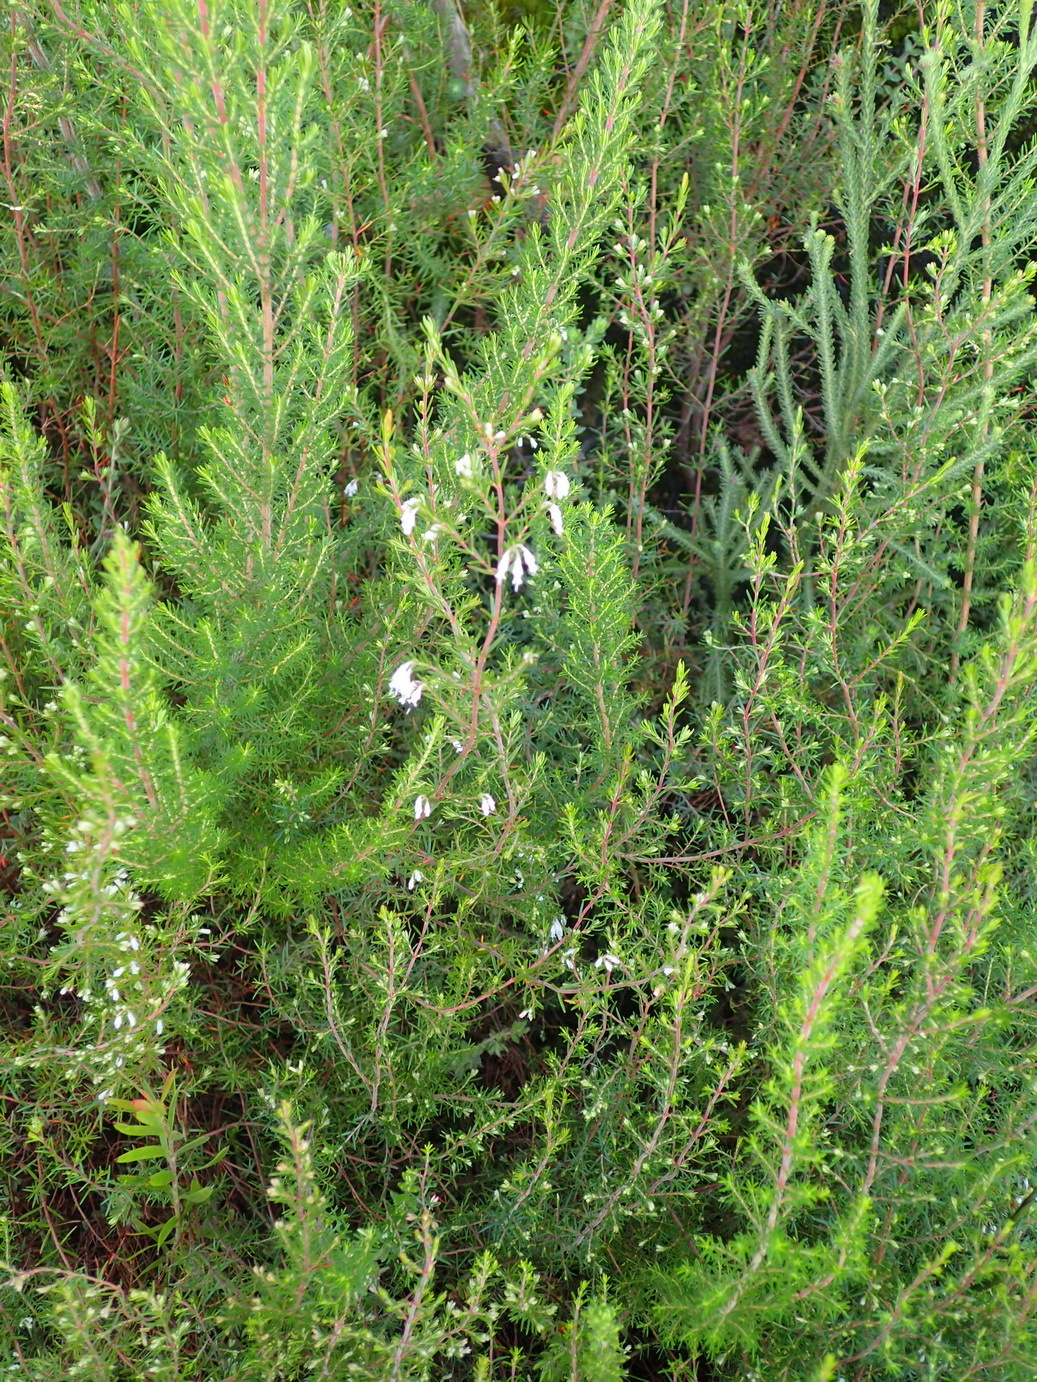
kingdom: Plantae
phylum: Tracheophyta
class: Magnoliopsida
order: Ericales
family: Ericaceae
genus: Erica
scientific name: Erica fuscescens
